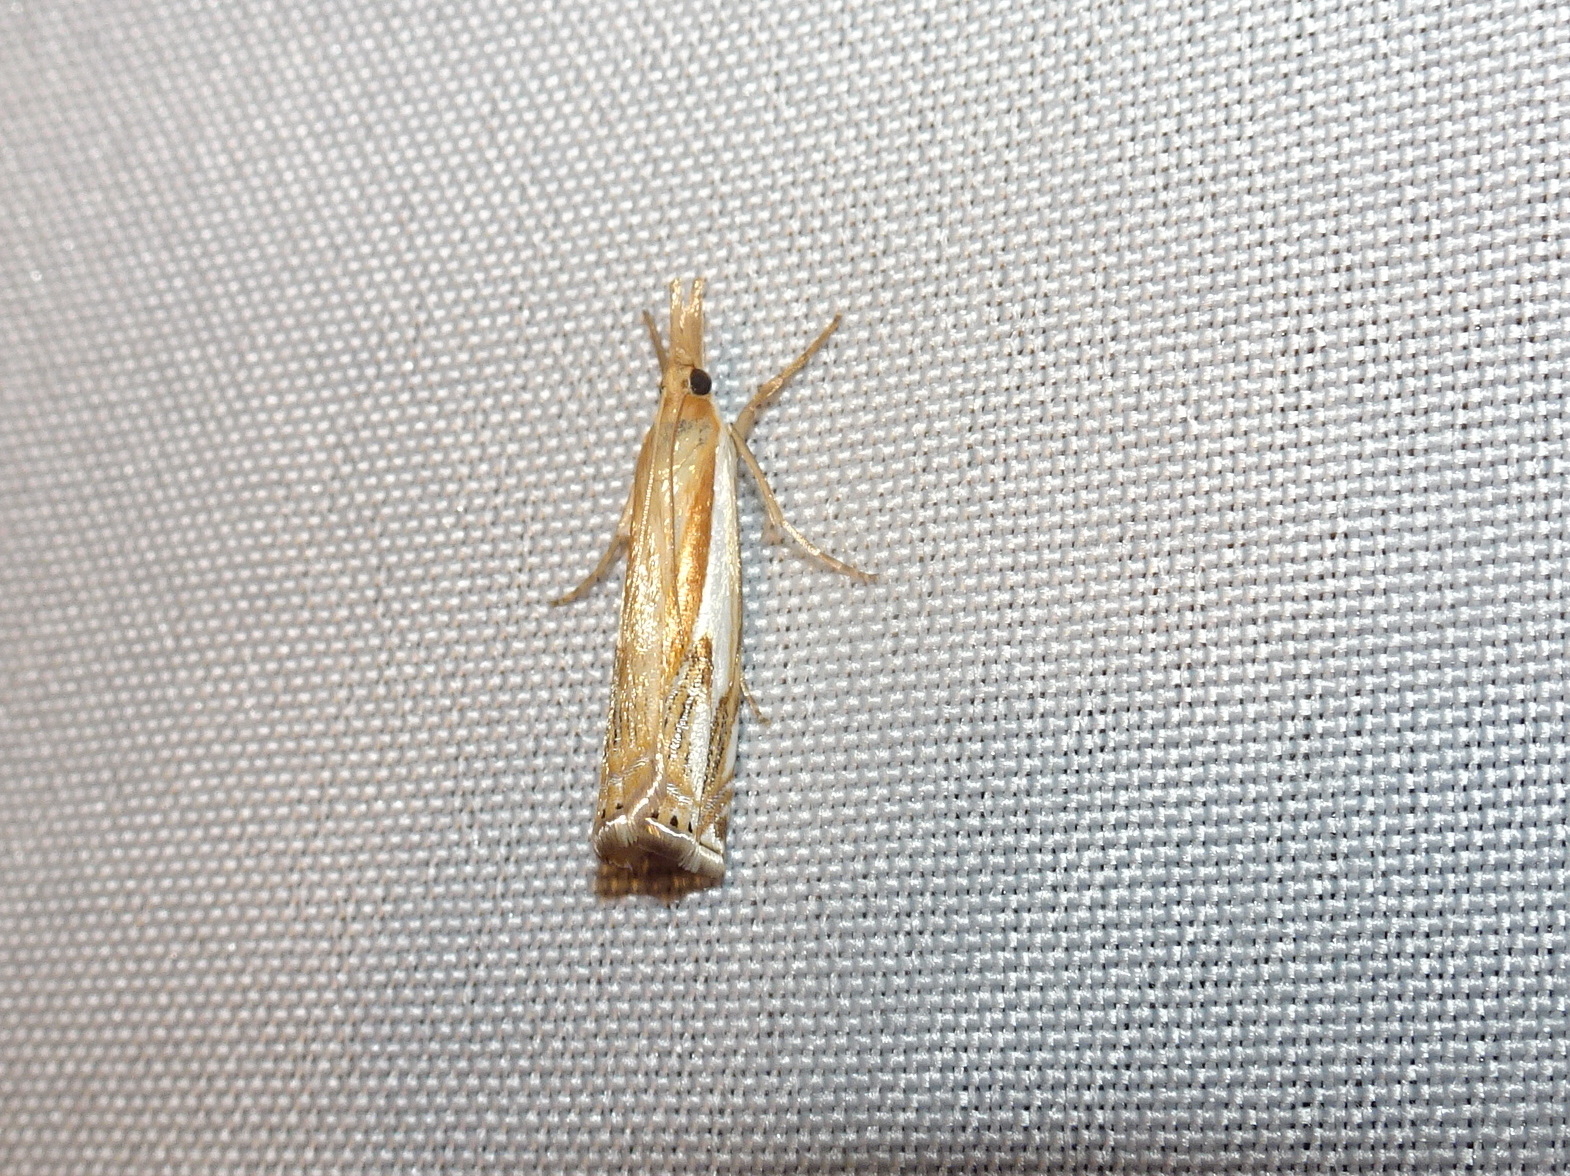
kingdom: Animalia
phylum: Arthropoda
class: Insecta
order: Lepidoptera
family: Crambidae
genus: Crambus
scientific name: Crambus agitatellus
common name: Double-banded grass-veneer
